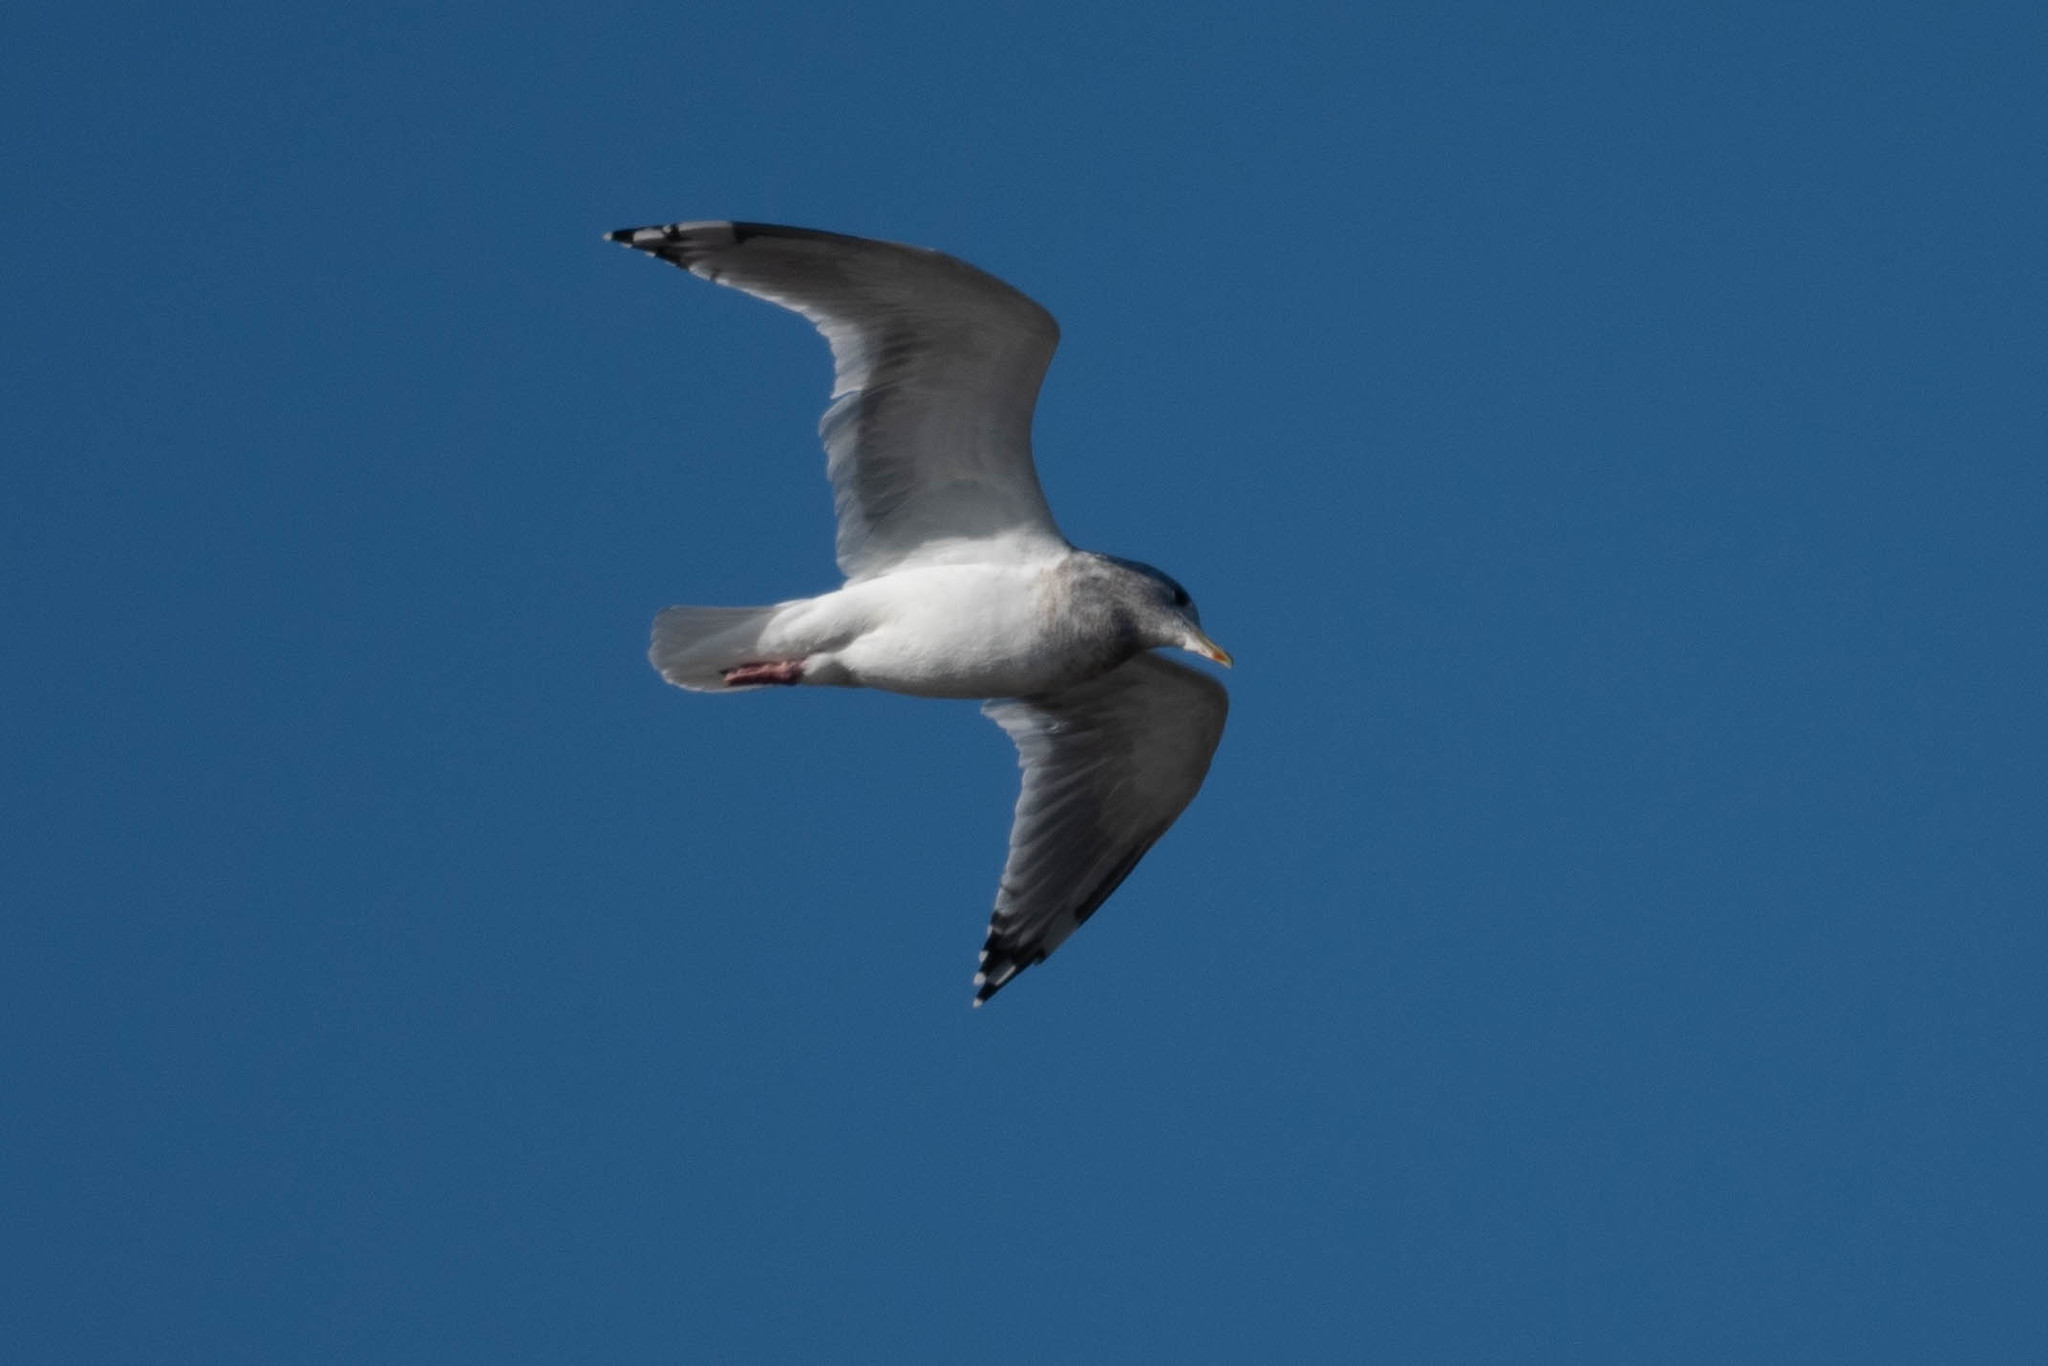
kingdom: Animalia
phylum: Chordata
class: Aves
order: Charadriiformes
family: Laridae
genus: Larus
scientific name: Larus
